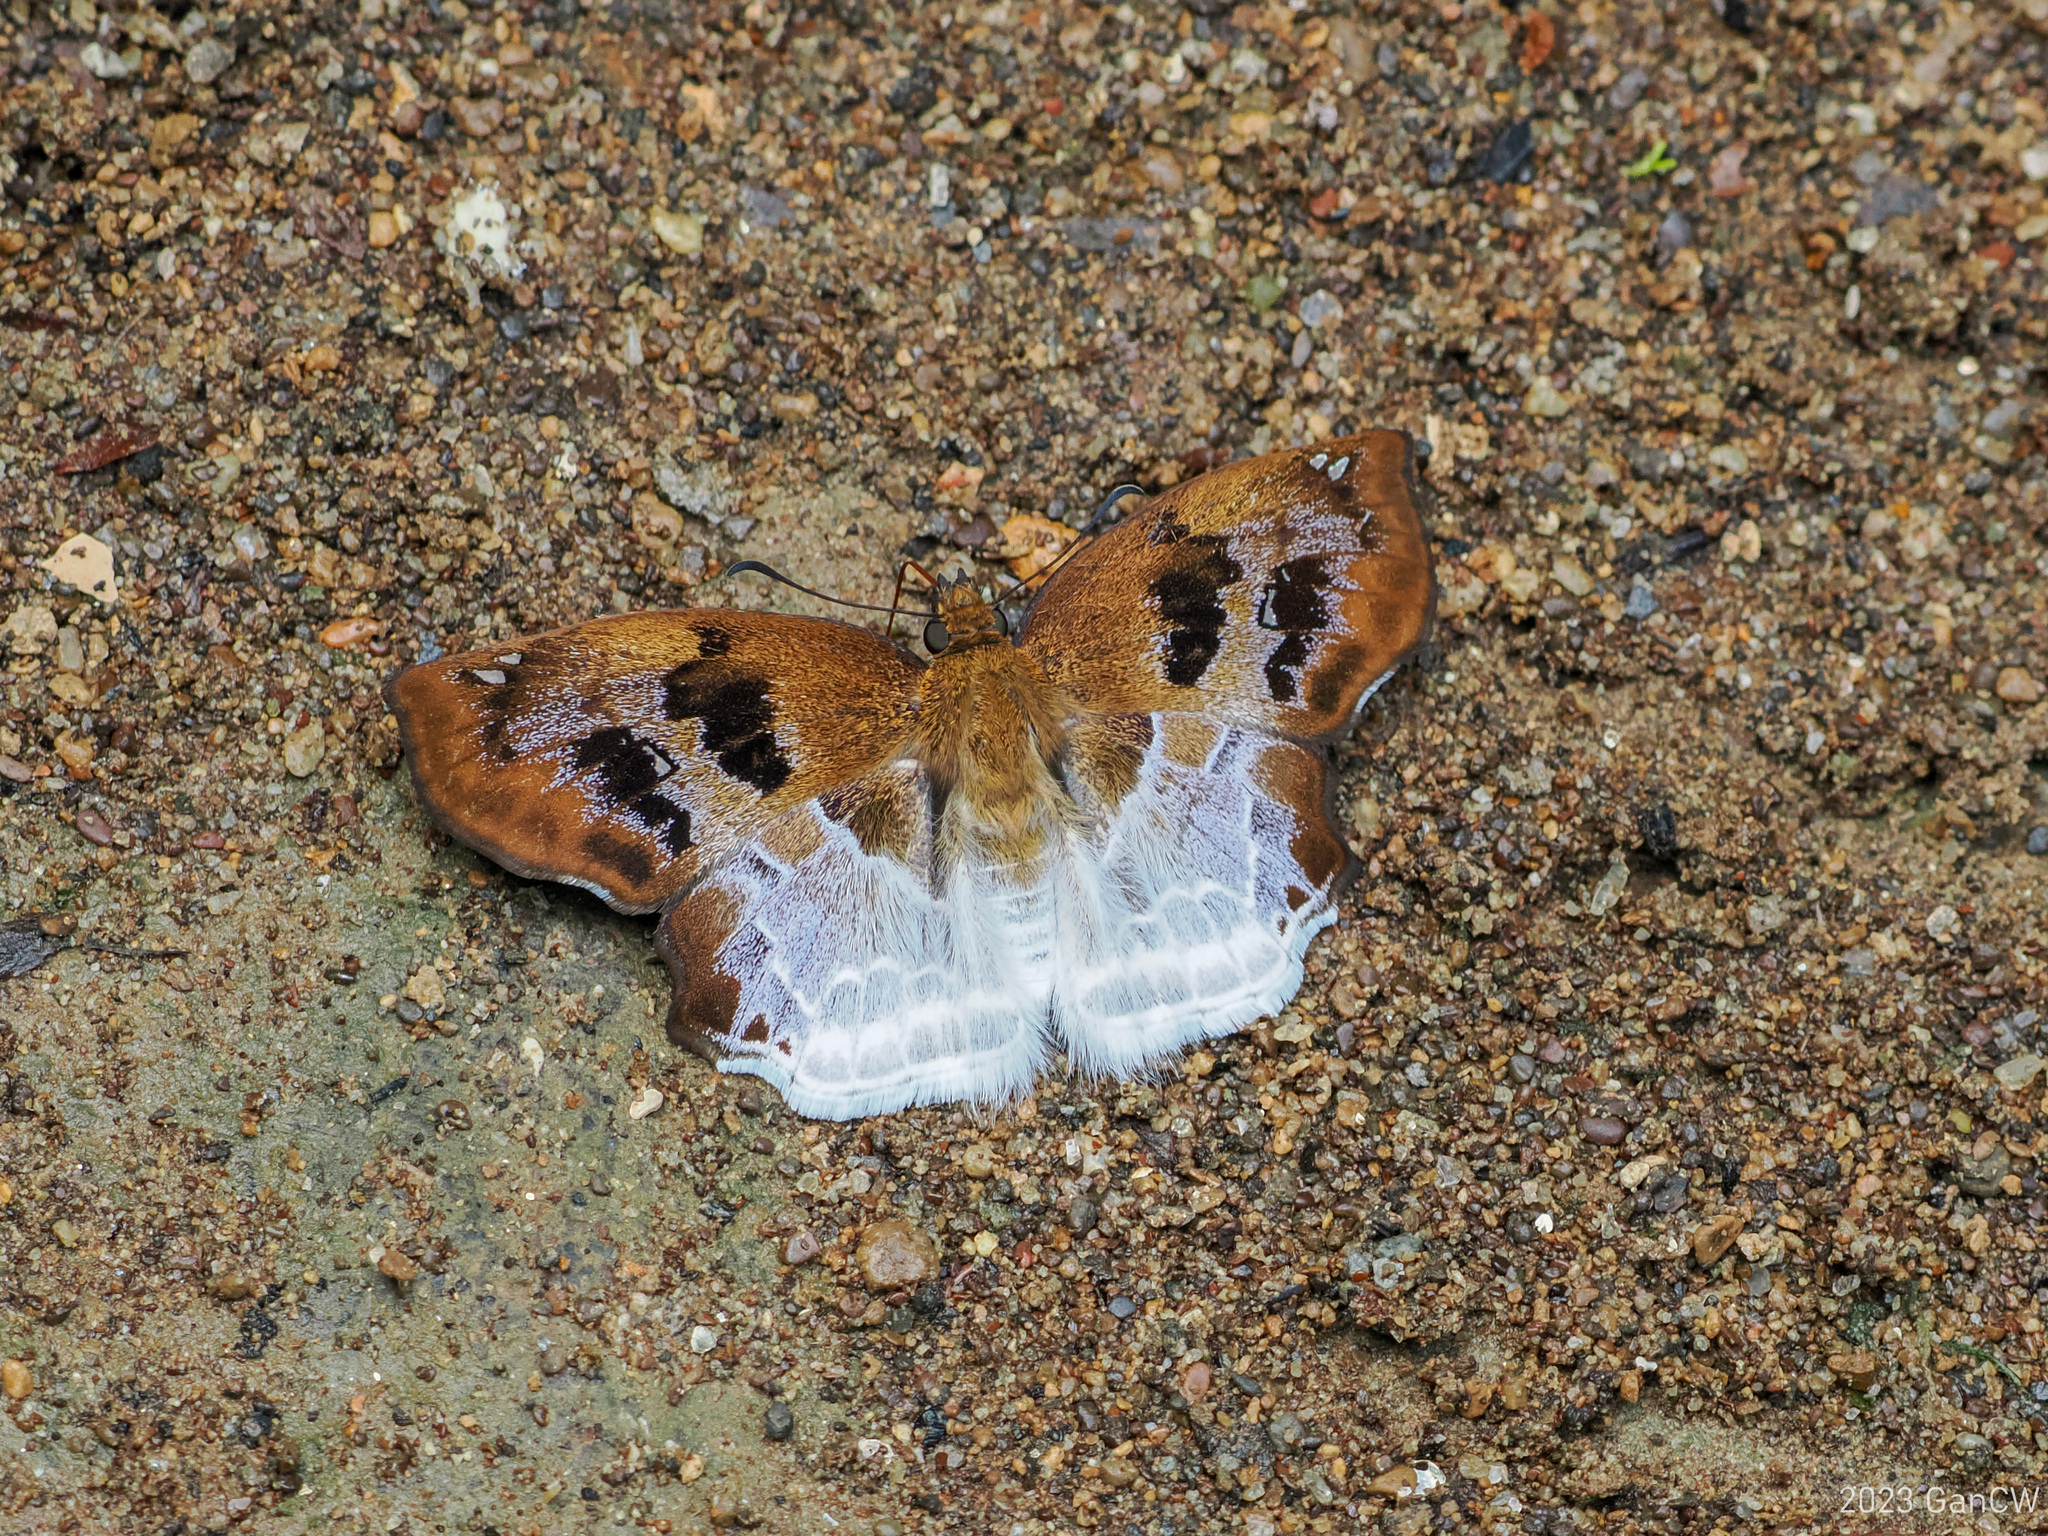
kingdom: Animalia
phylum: Arthropoda
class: Insecta
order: Lepidoptera
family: Hesperiidae
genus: Odontoptilum
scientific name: Odontoptilum angulata
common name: Chestnut banded angle
